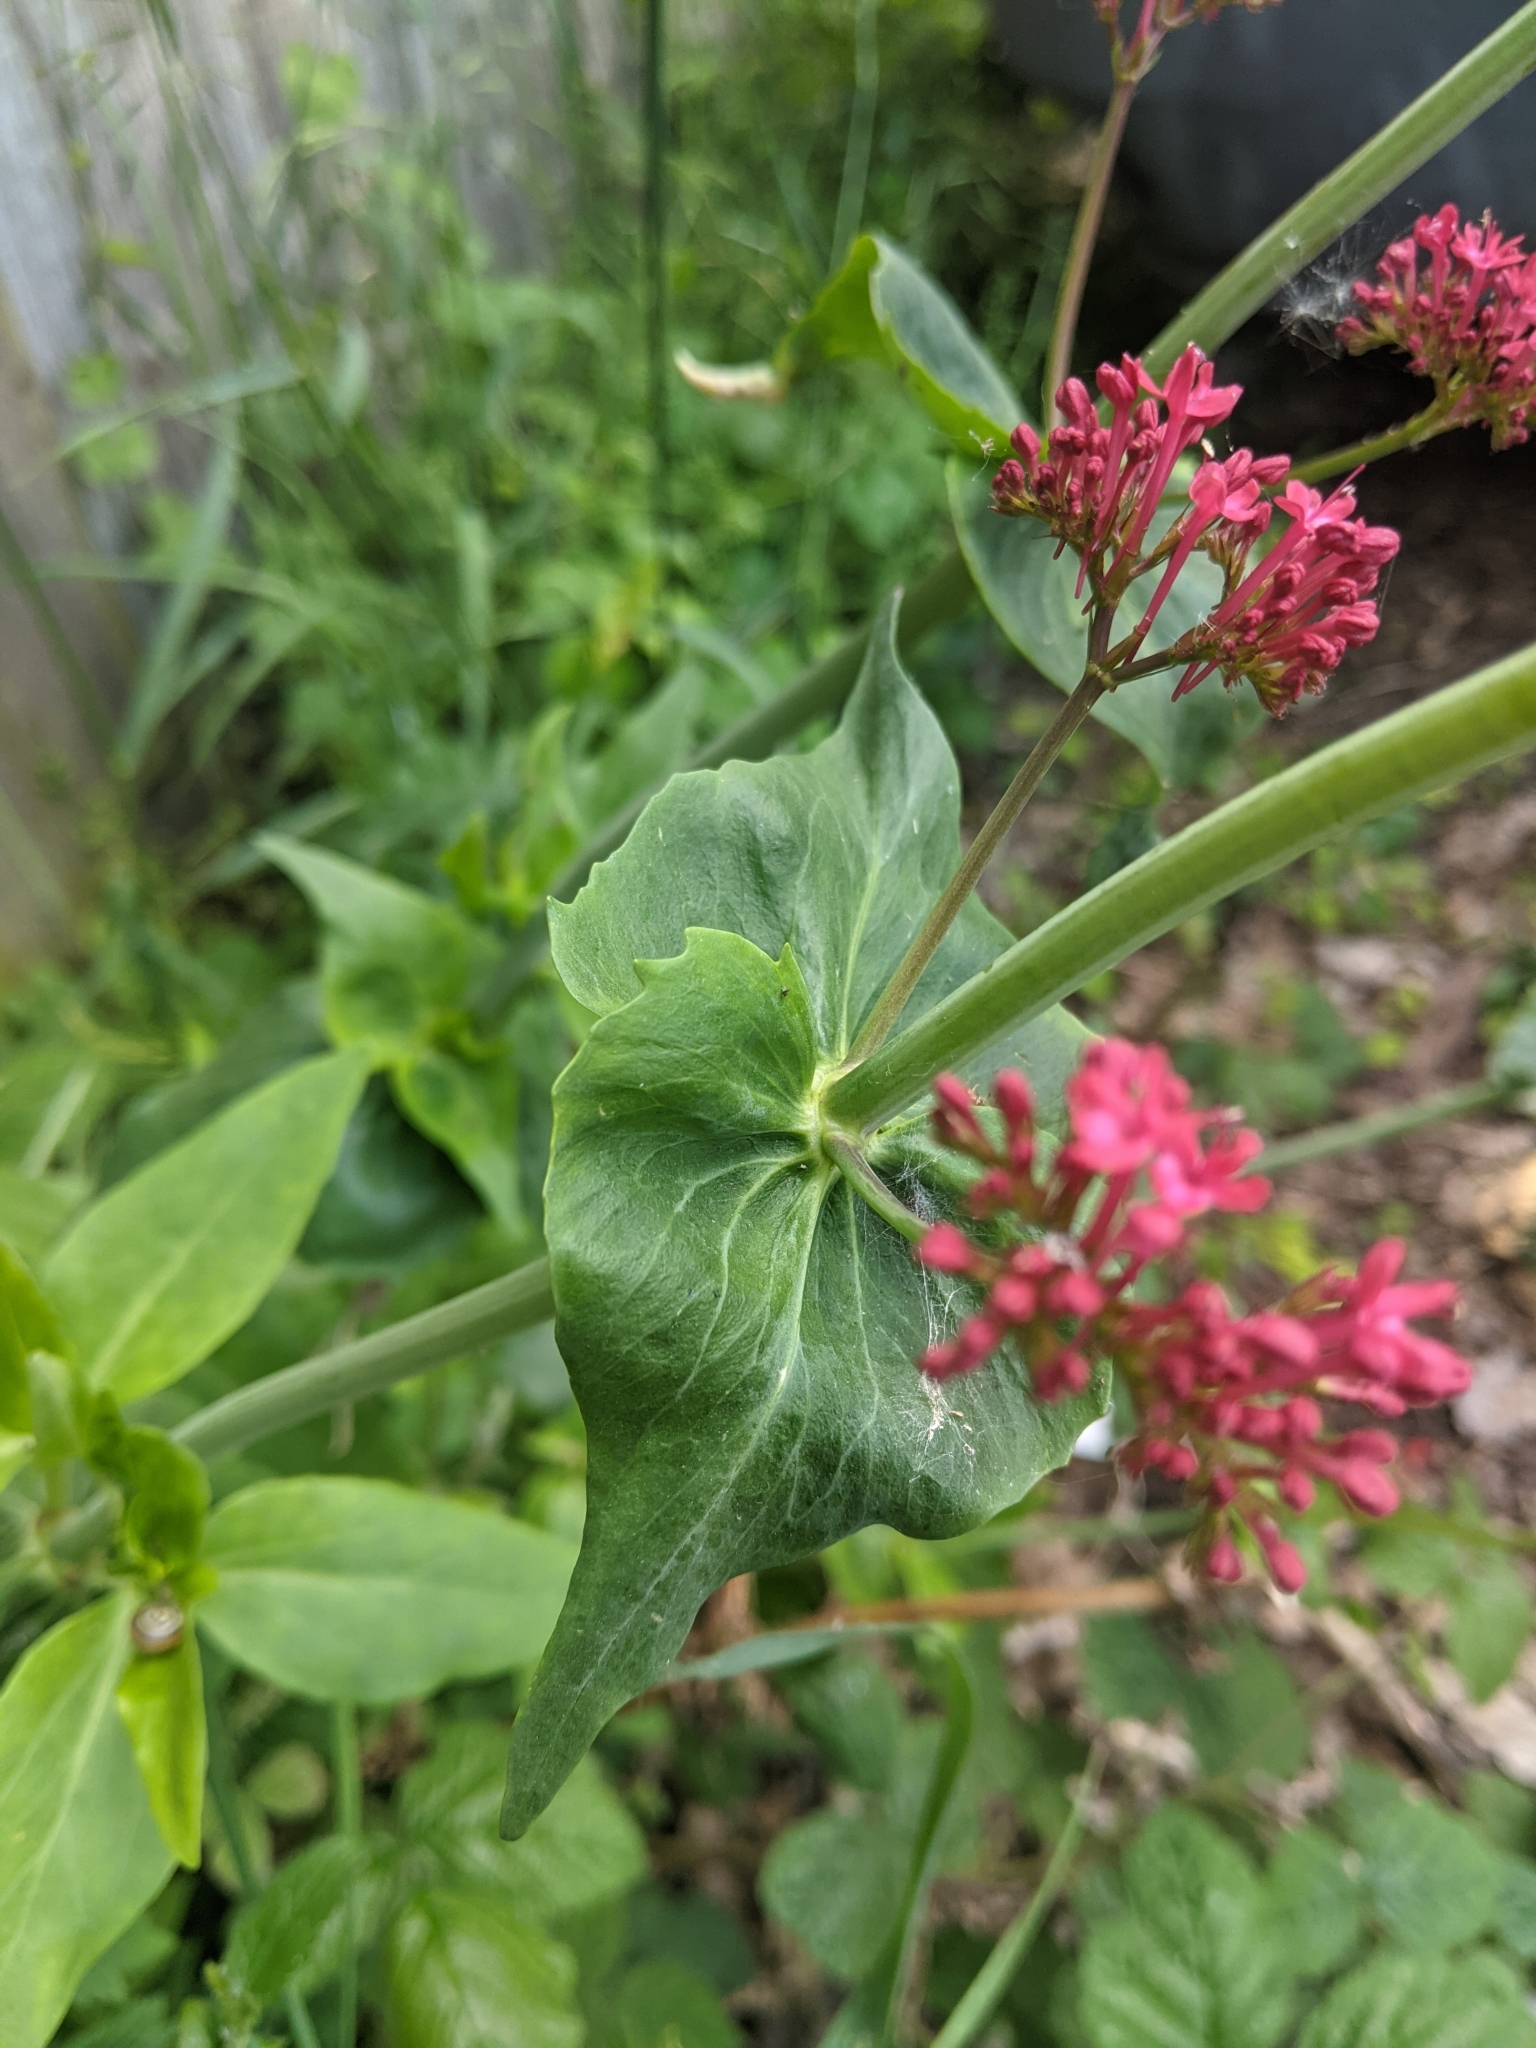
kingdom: Plantae
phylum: Tracheophyta
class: Magnoliopsida
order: Dipsacales
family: Caprifoliaceae
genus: Centranthus
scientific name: Centranthus ruber
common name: Red valerian
